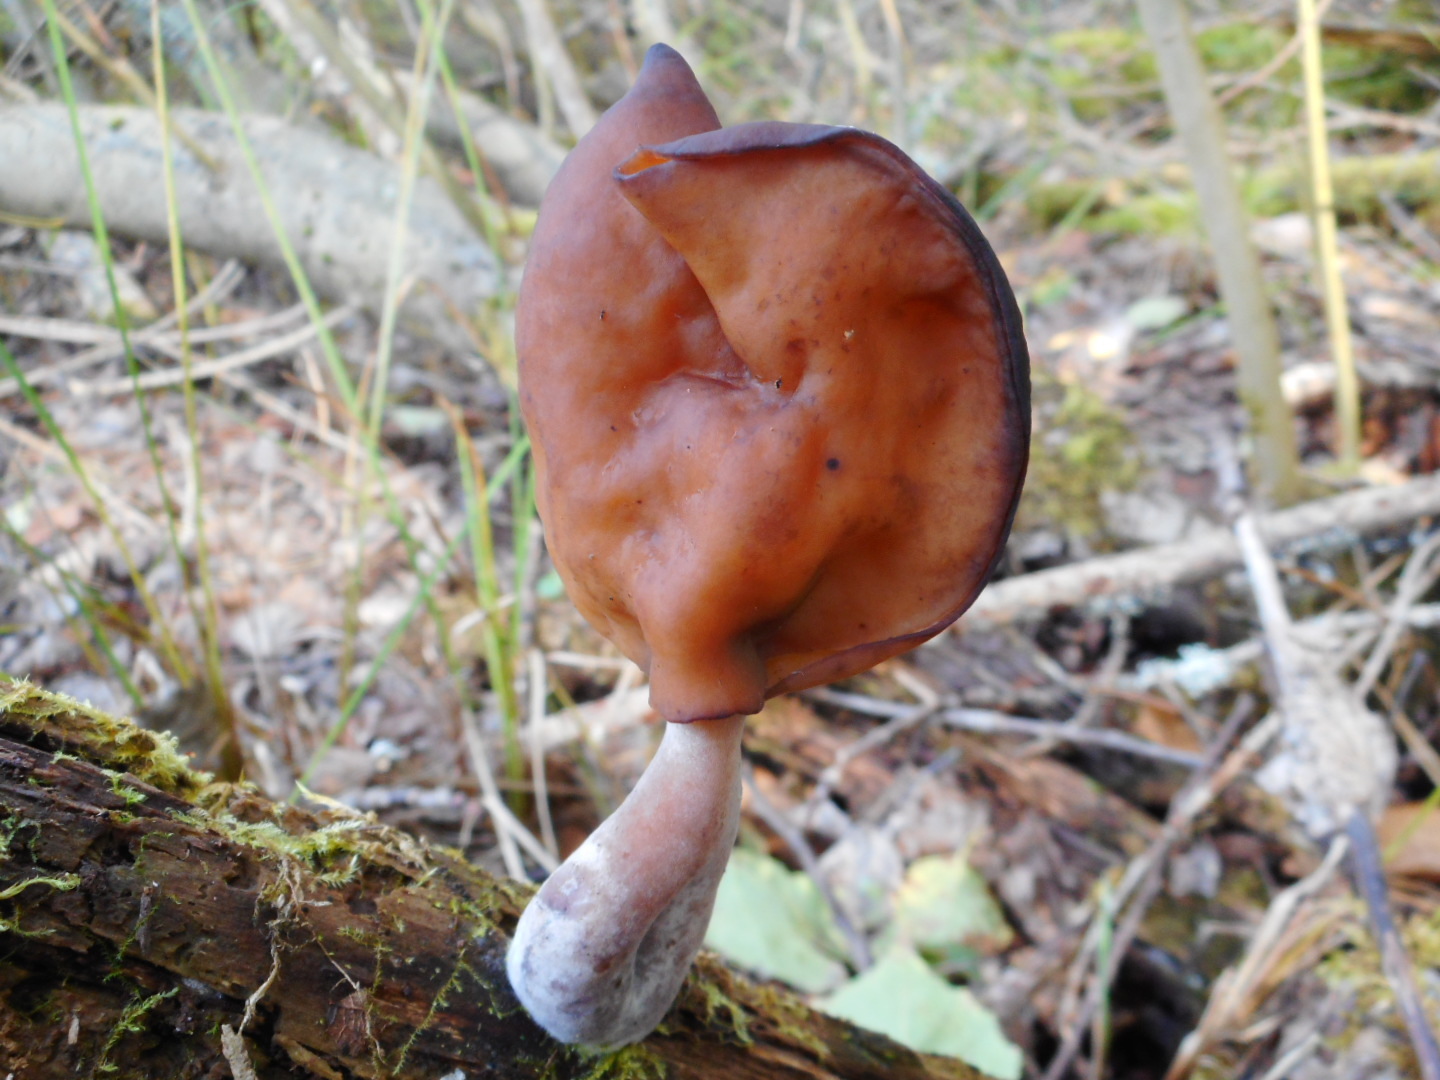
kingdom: Fungi
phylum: Ascomycota
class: Pezizomycetes
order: Pezizales
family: Discinaceae
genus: Gyromitra
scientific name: Gyromitra infula
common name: Pouched false morel
